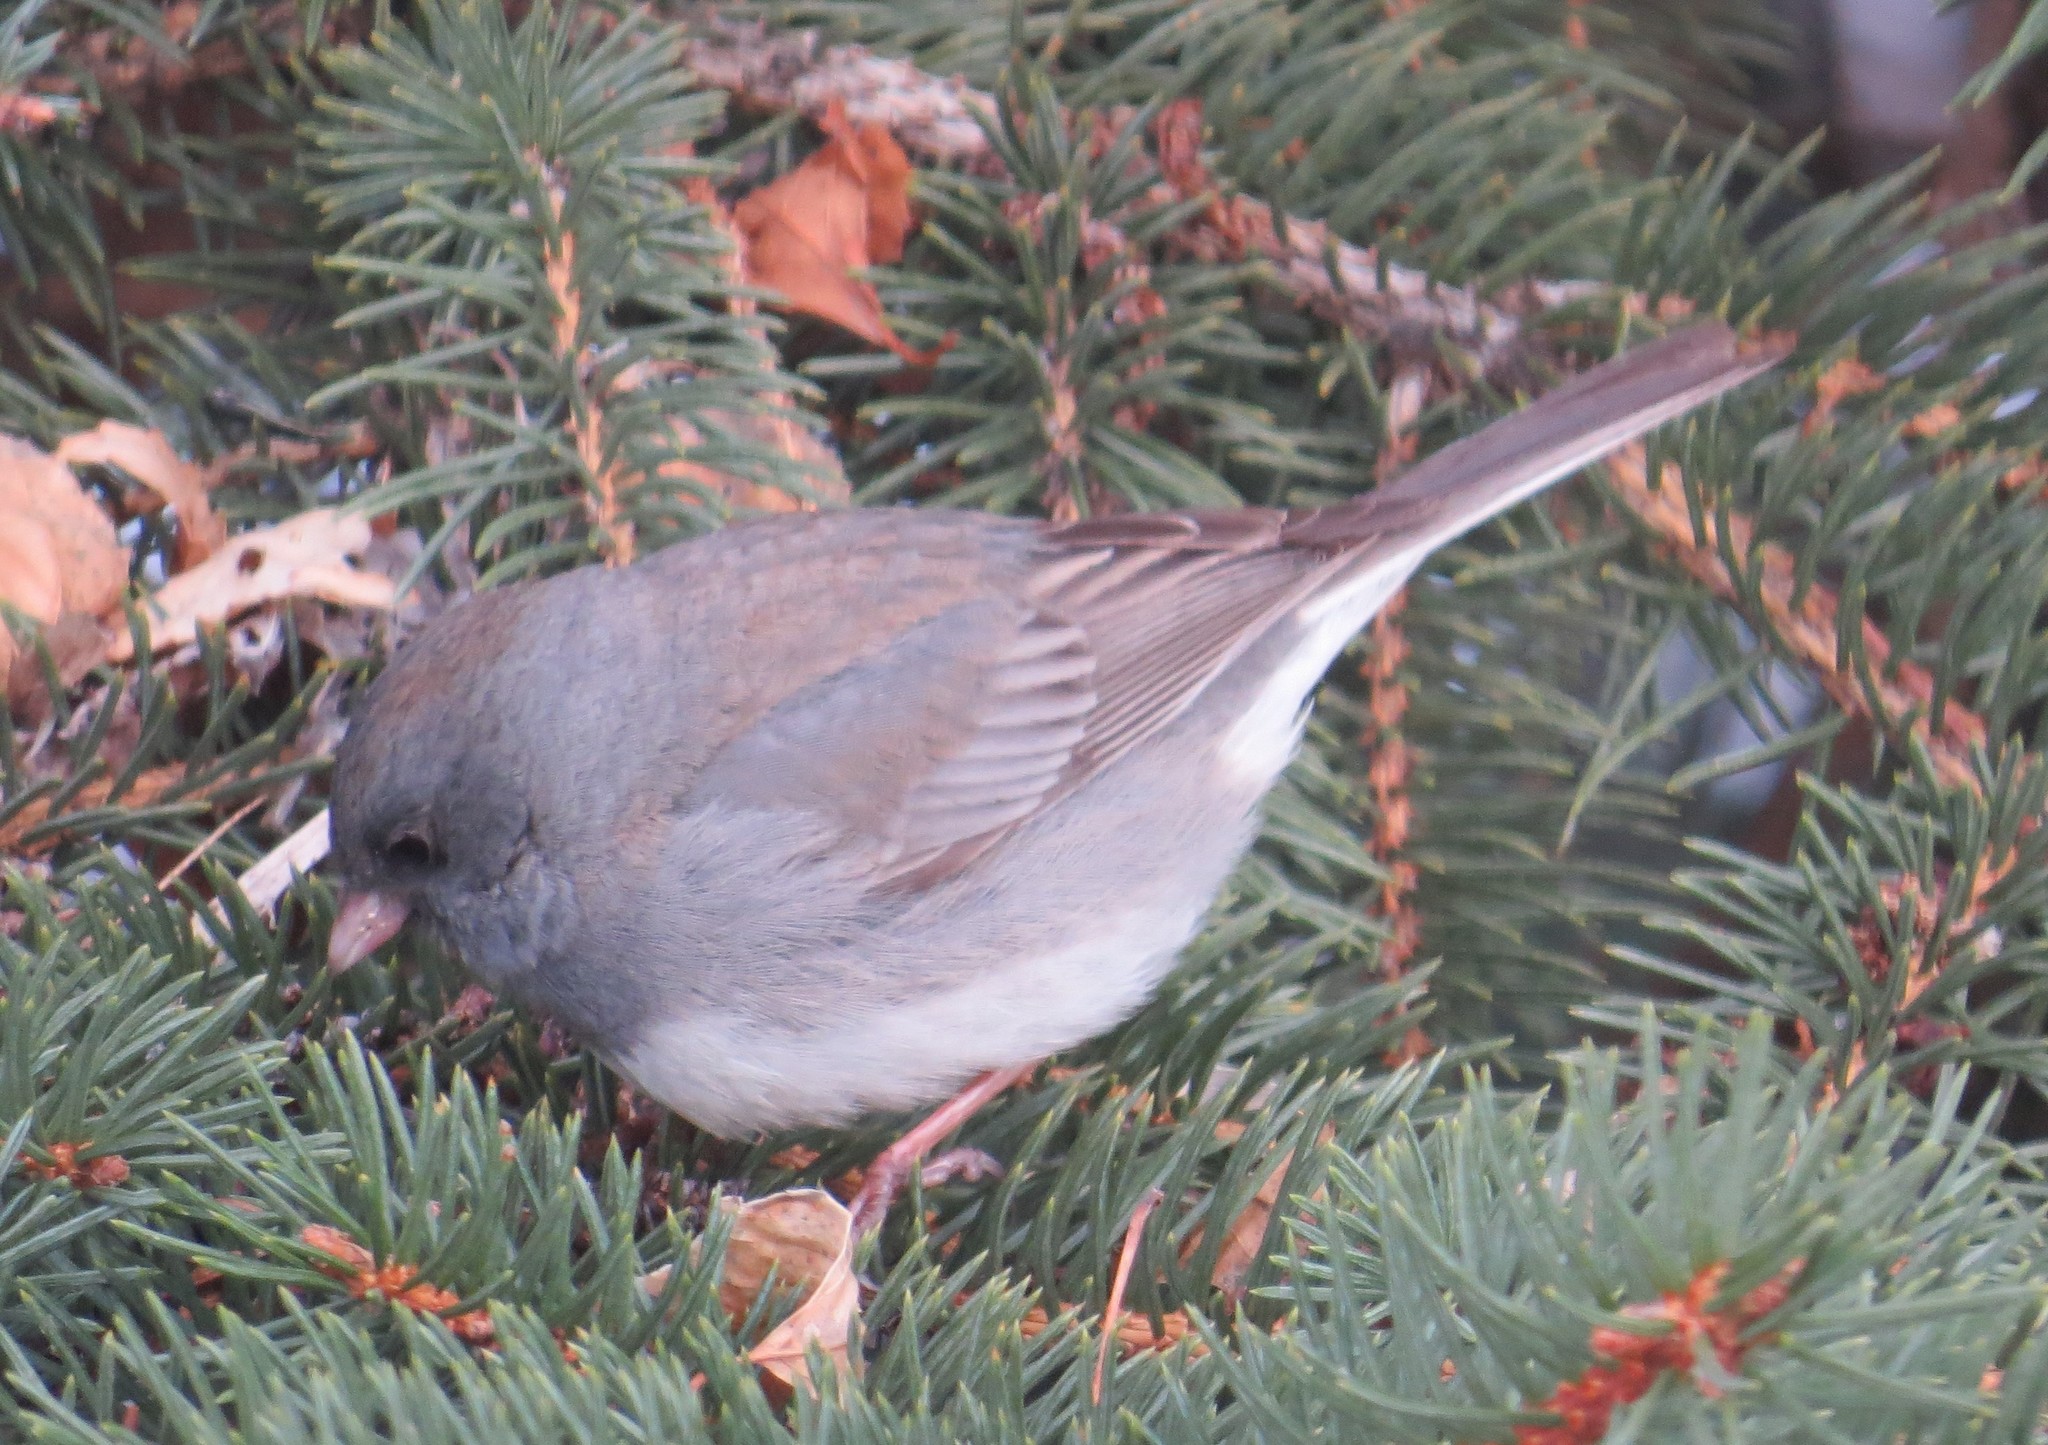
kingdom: Animalia
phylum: Chordata
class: Aves
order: Passeriformes
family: Passerellidae
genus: Junco
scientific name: Junco hyemalis
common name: Dark-eyed junco
